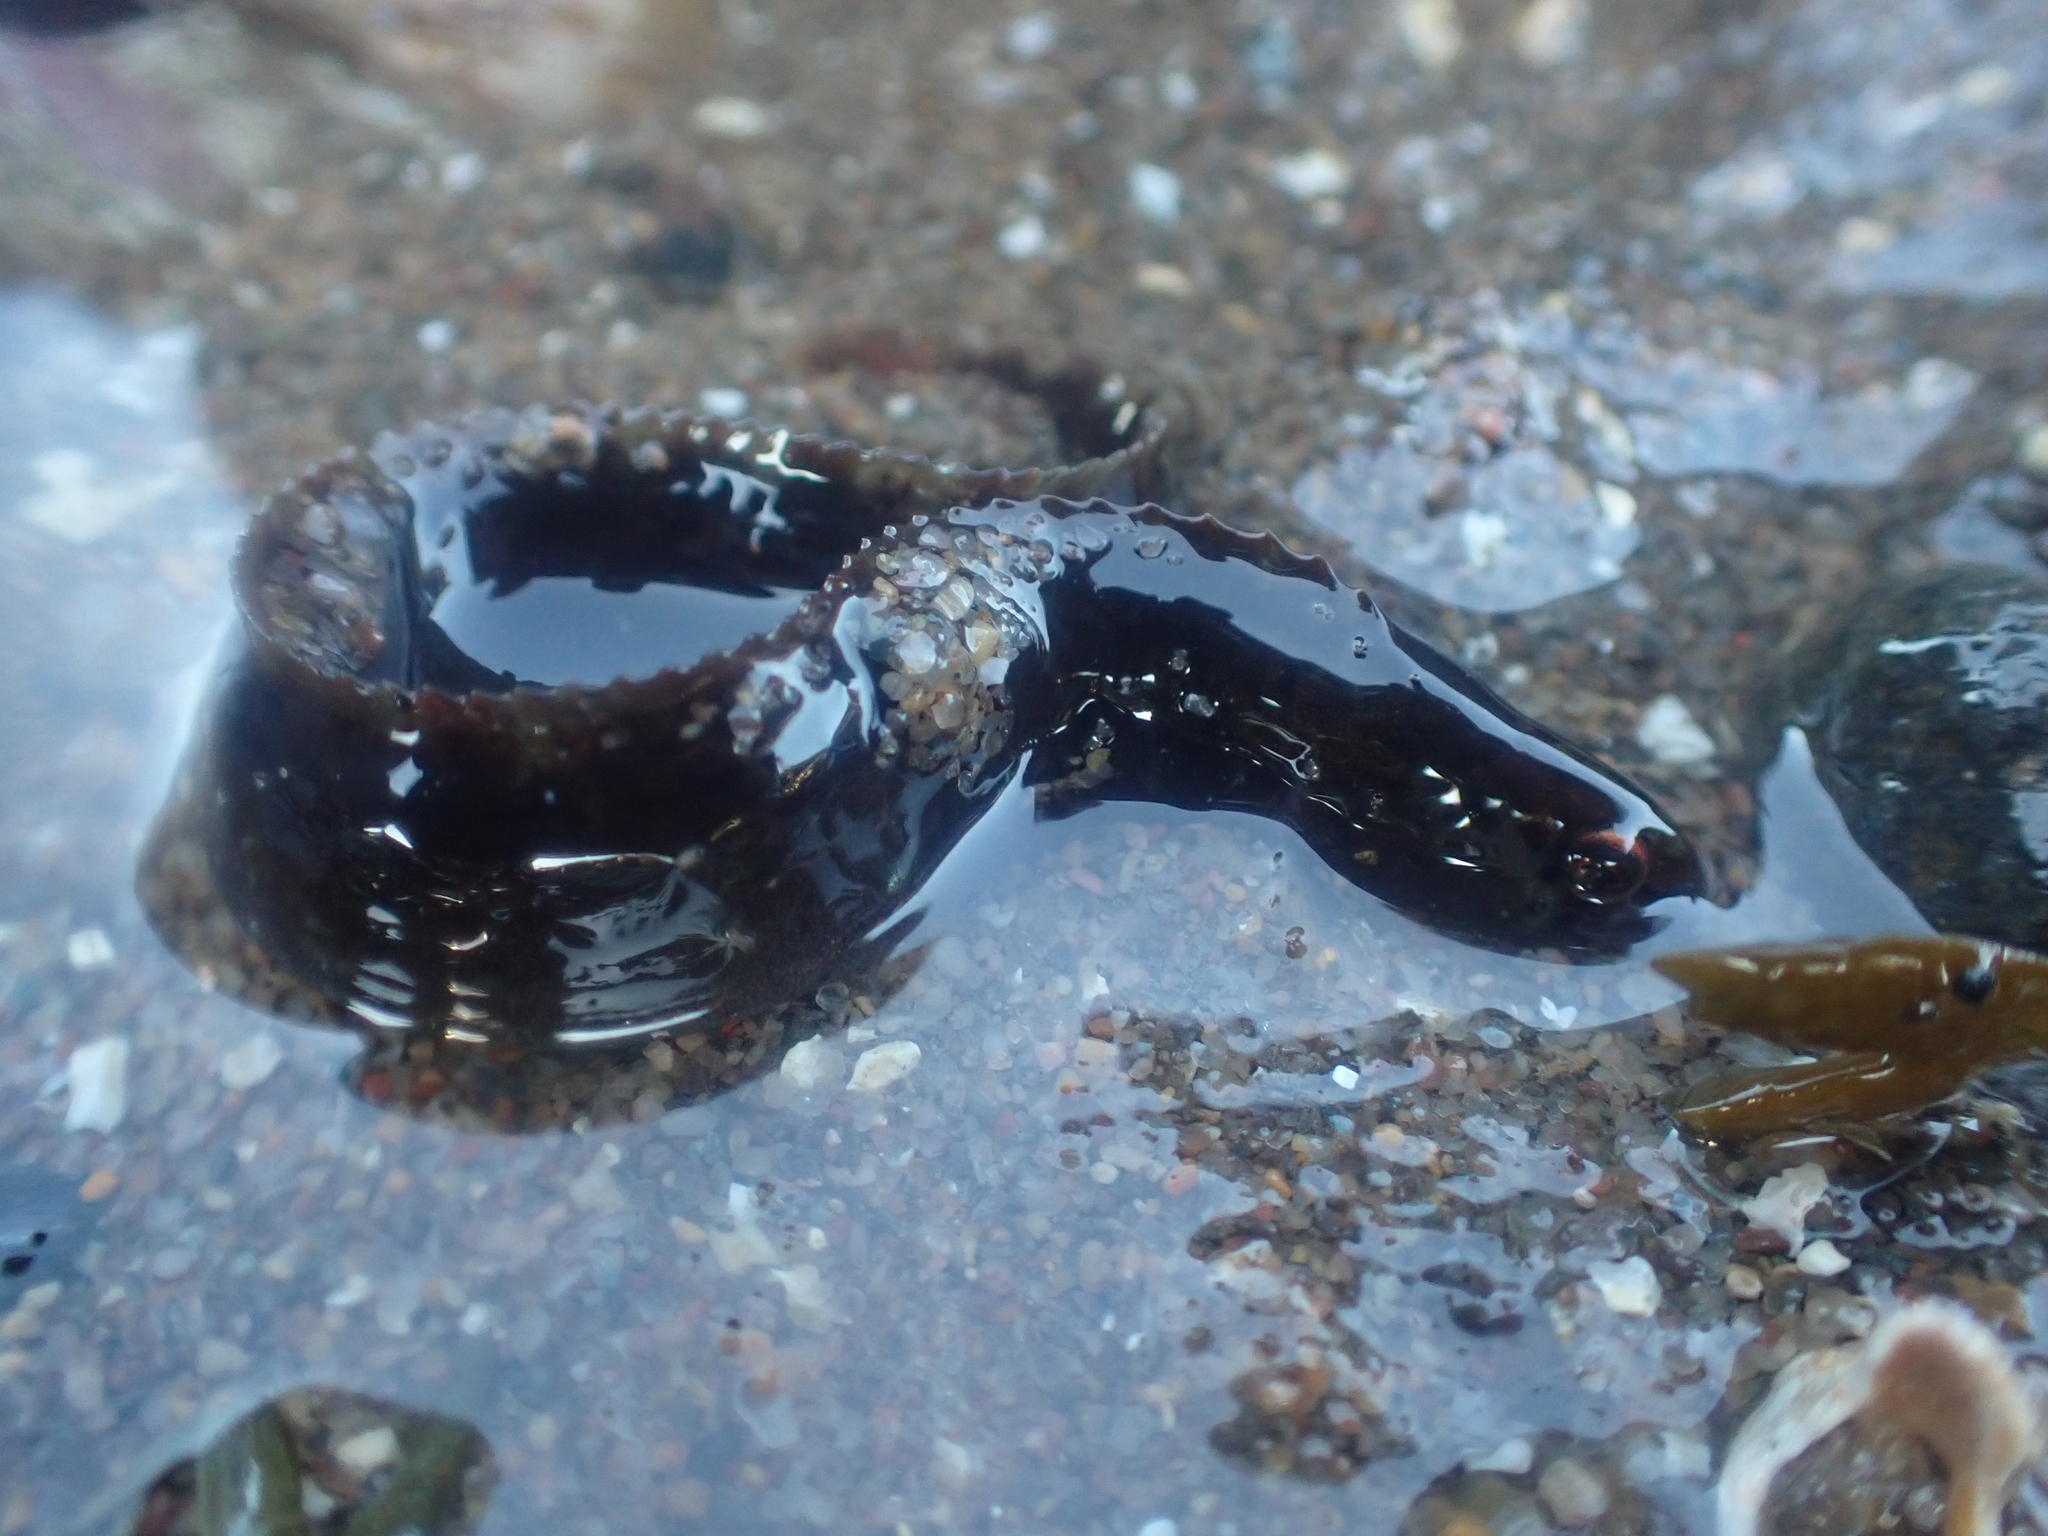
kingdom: Animalia
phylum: Chordata
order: Perciformes
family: Pholidae
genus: Pholis
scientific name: Pholis gunnellus
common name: Butterfish
